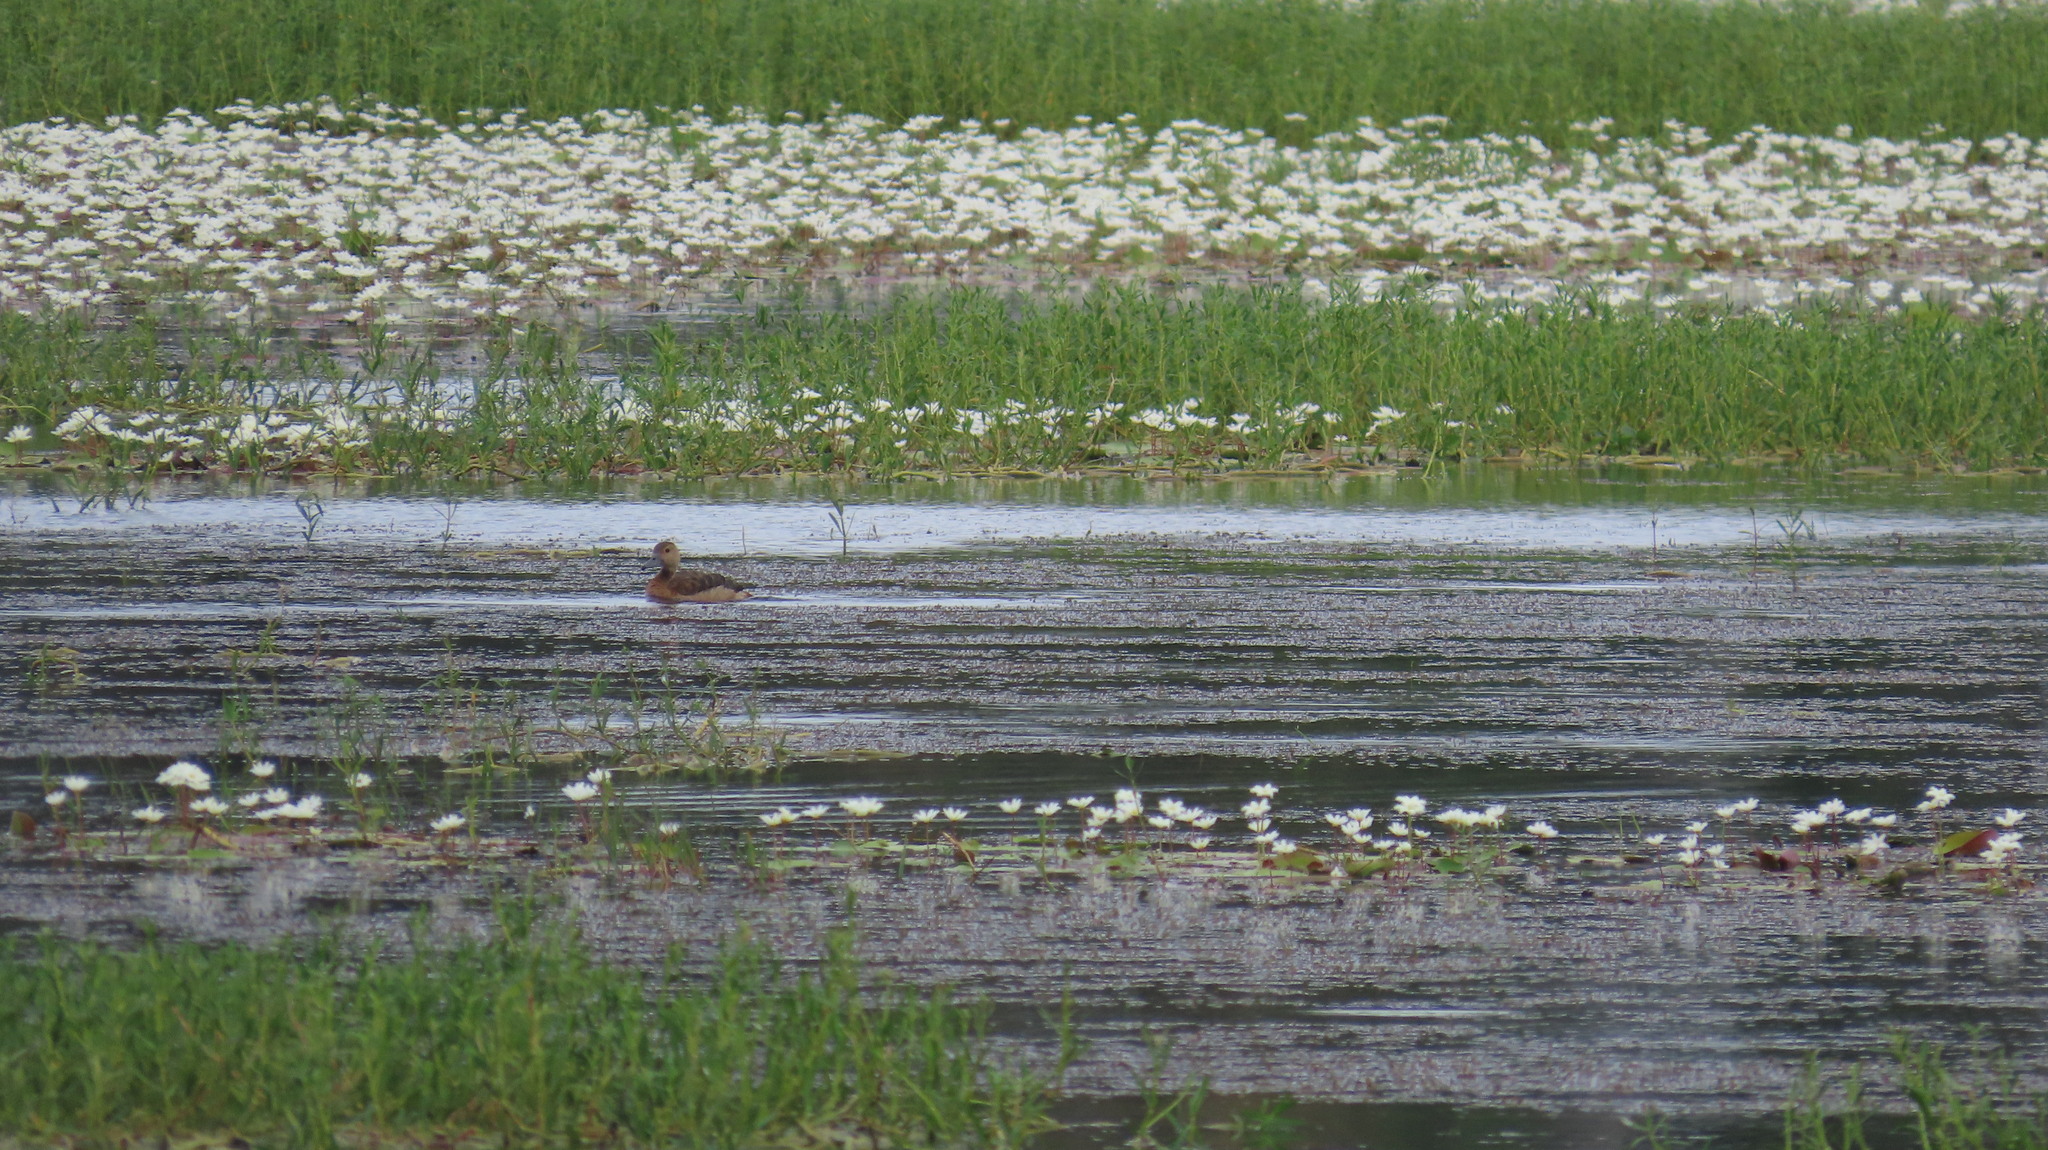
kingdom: Animalia
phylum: Chordata
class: Aves
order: Anseriformes
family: Anatidae
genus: Dendrocygna
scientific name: Dendrocygna javanica
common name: Lesser whistling-duck
